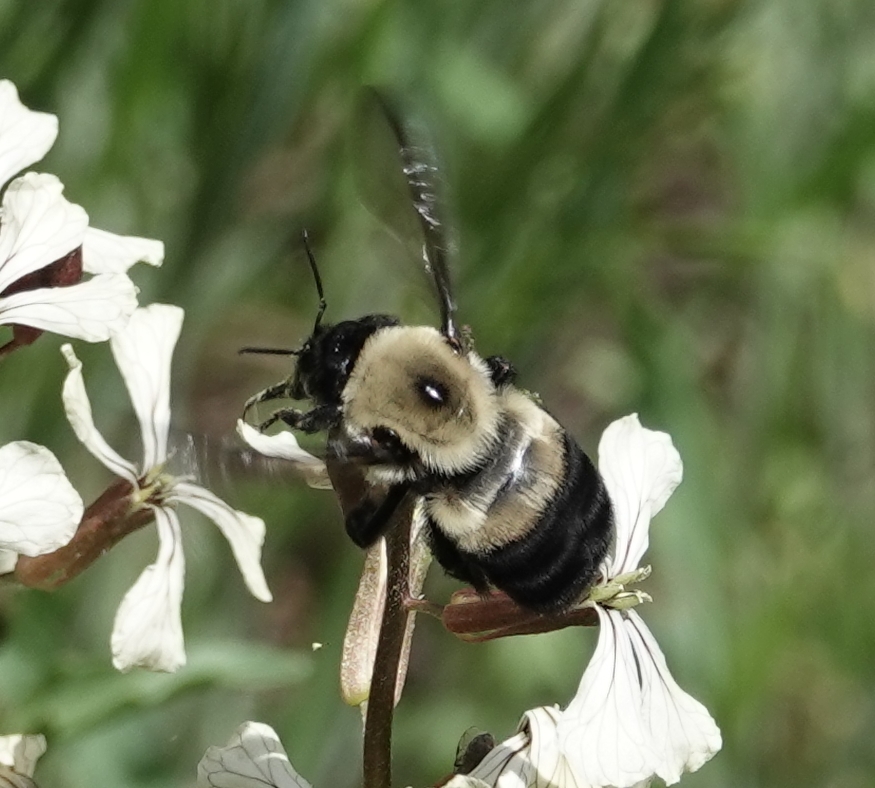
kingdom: Animalia
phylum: Arthropoda
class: Insecta
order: Hymenoptera
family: Apidae
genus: Bombus
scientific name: Bombus griseocollis
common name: Brown-belted bumble bee
